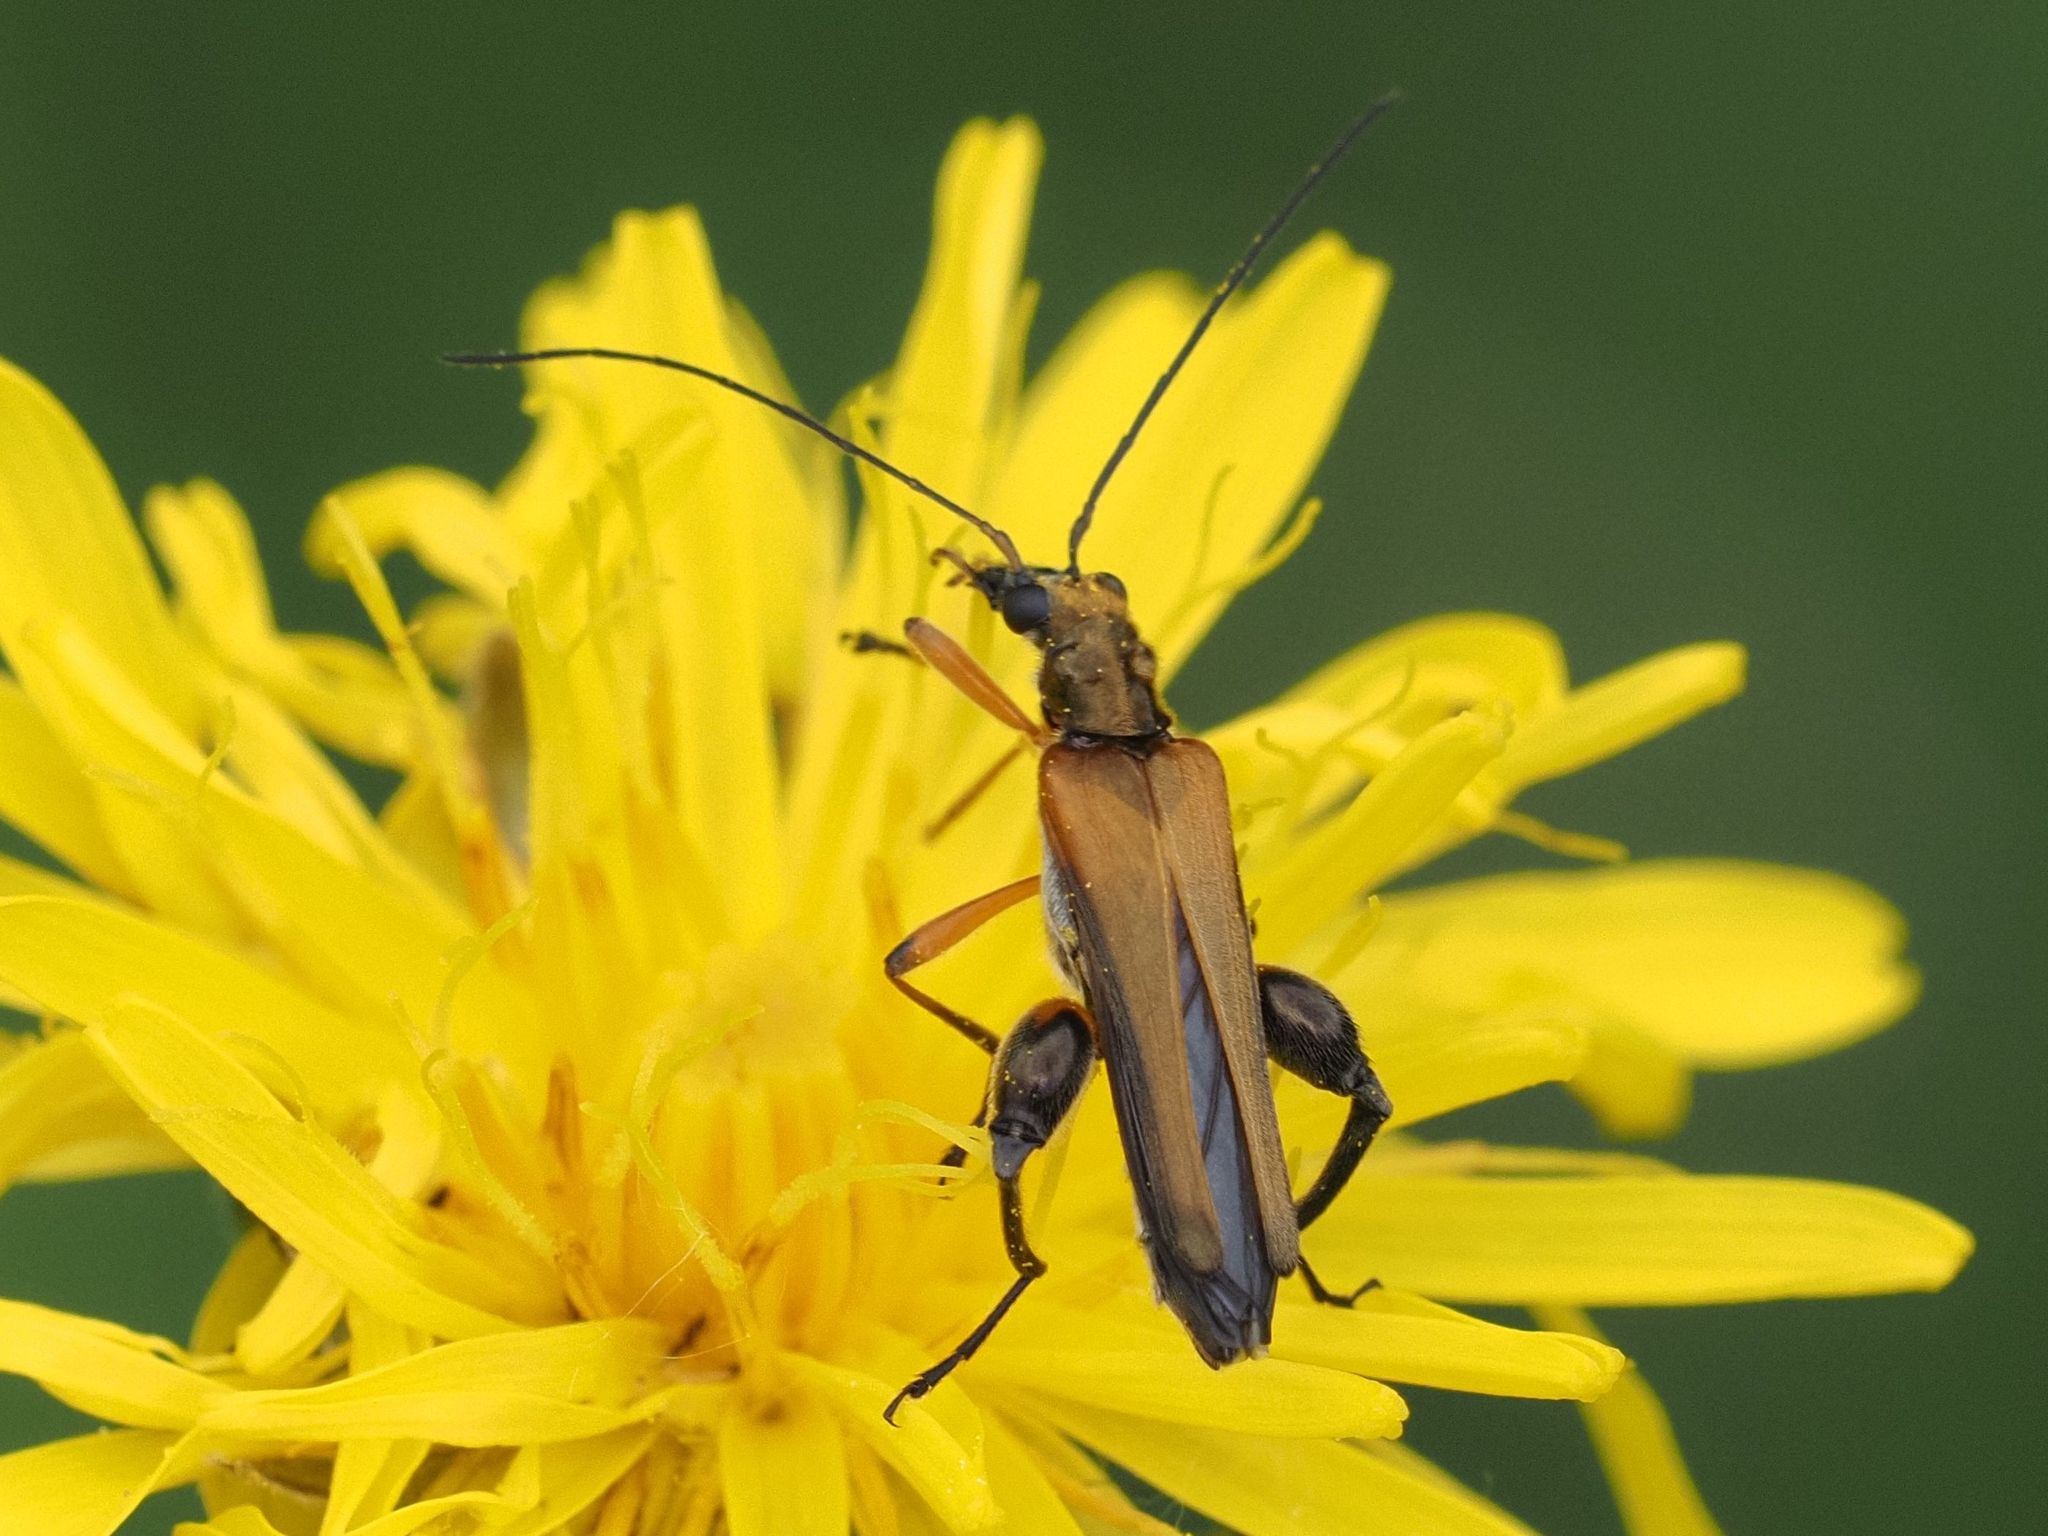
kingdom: Animalia
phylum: Arthropoda
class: Insecta
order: Coleoptera
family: Oedemeridae
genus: Oedemera
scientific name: Oedemera podagrariae
